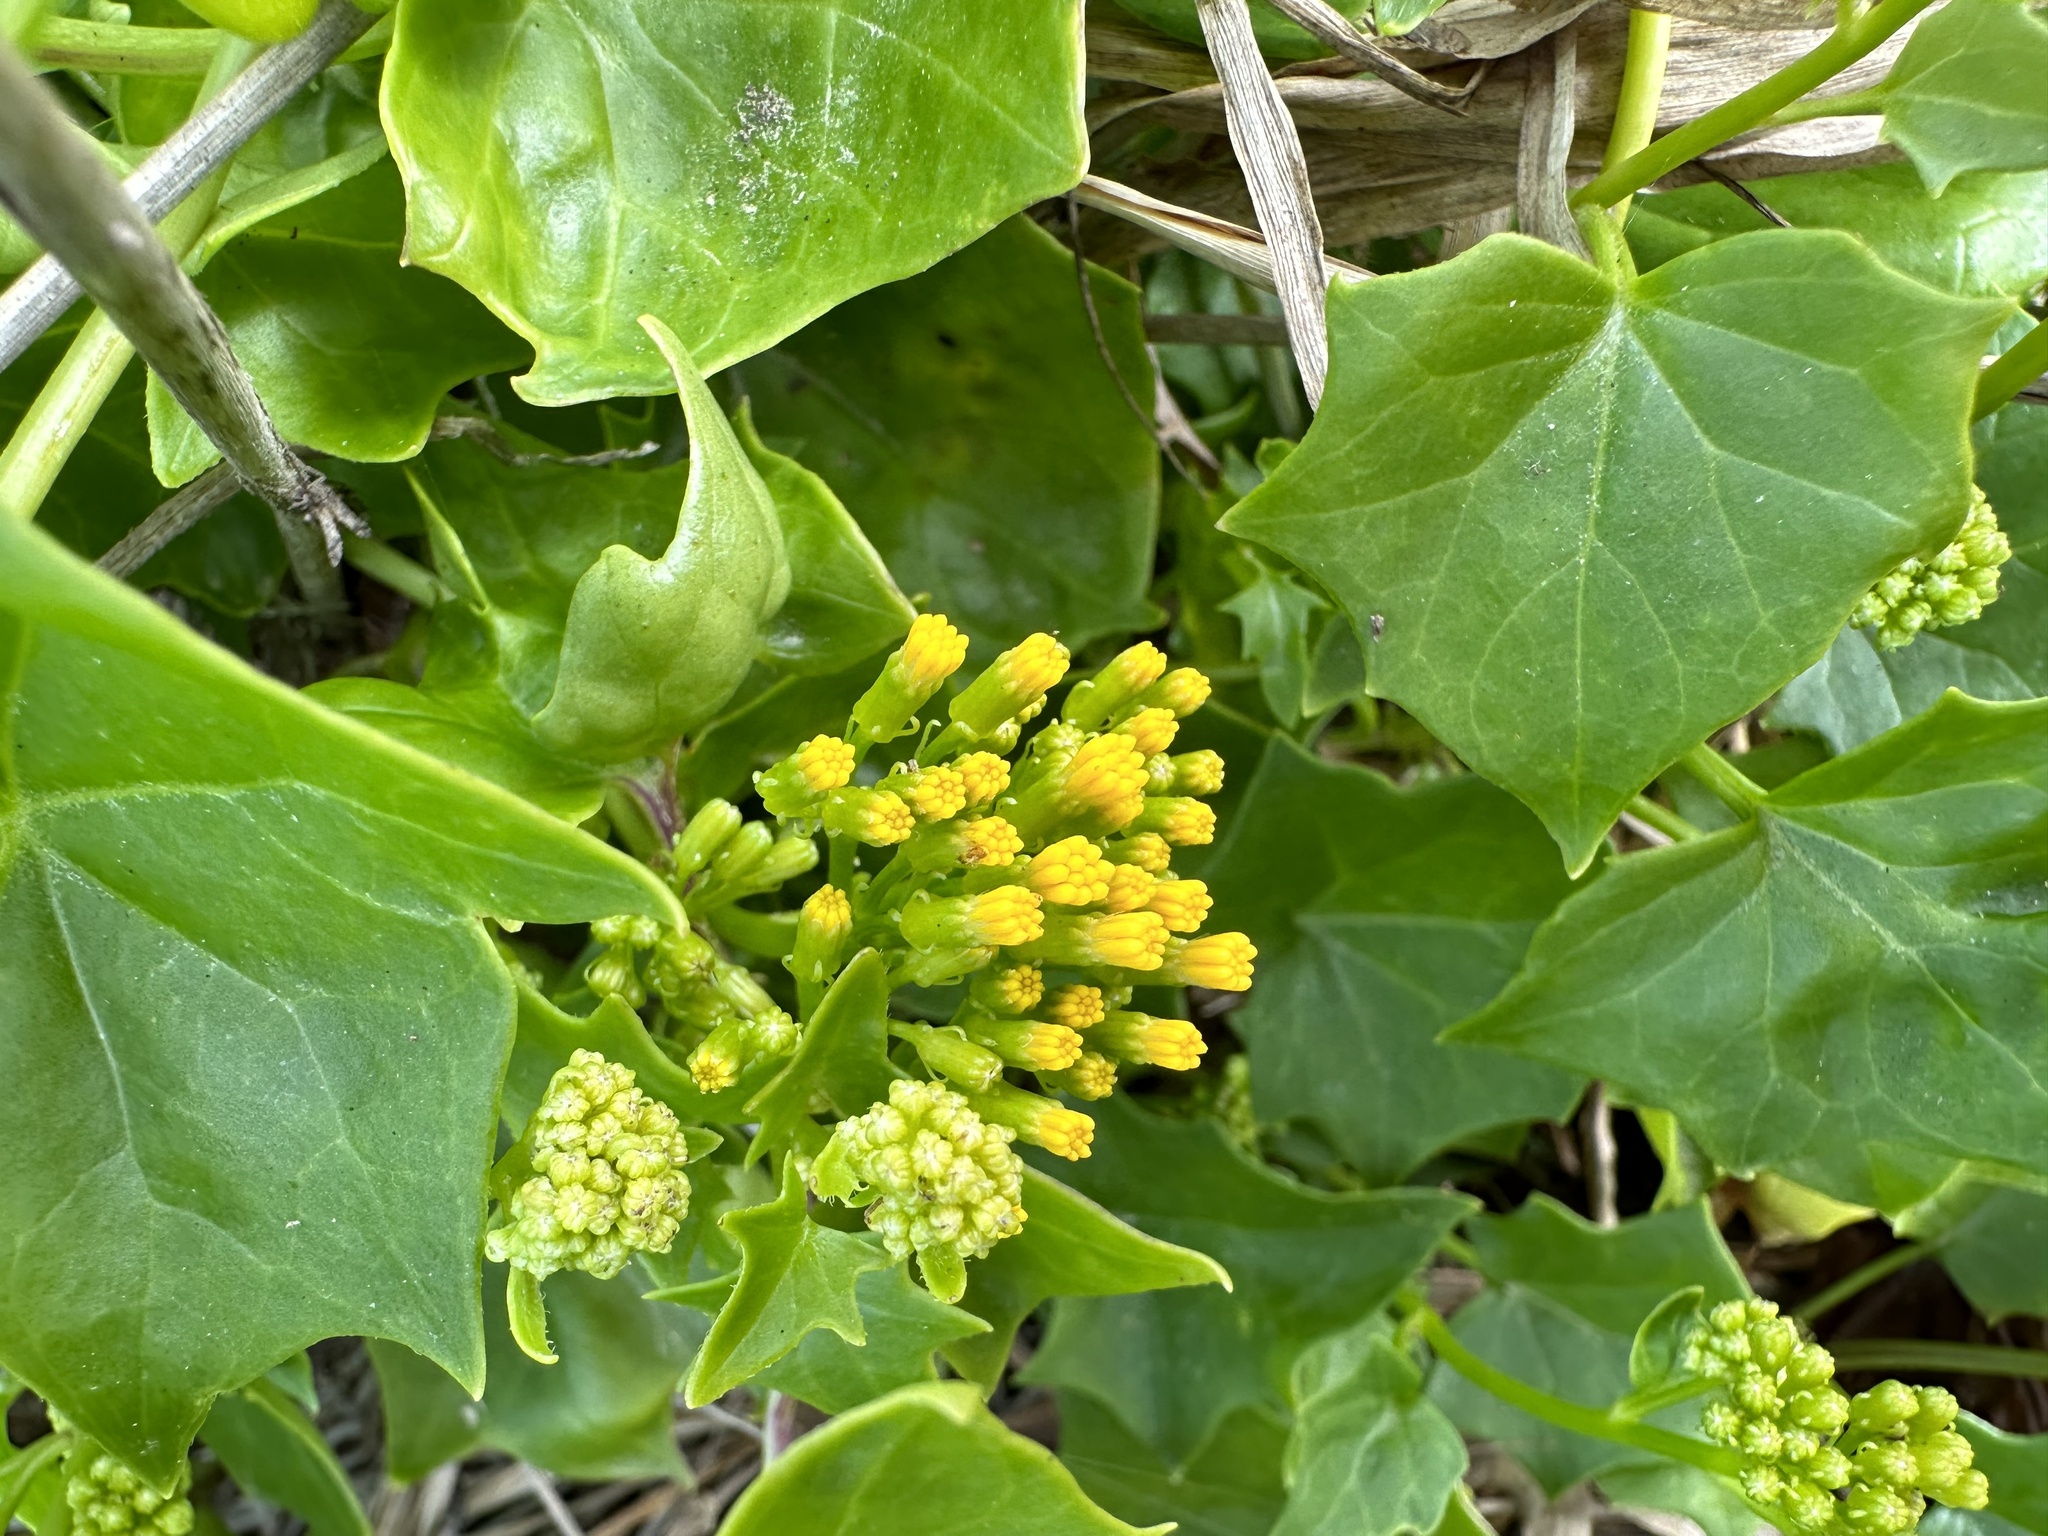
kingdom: Plantae
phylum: Tracheophyta
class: Magnoliopsida
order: Asterales
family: Asteraceae
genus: Delairea
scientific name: Delairea odorata
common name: Cape-ivy
